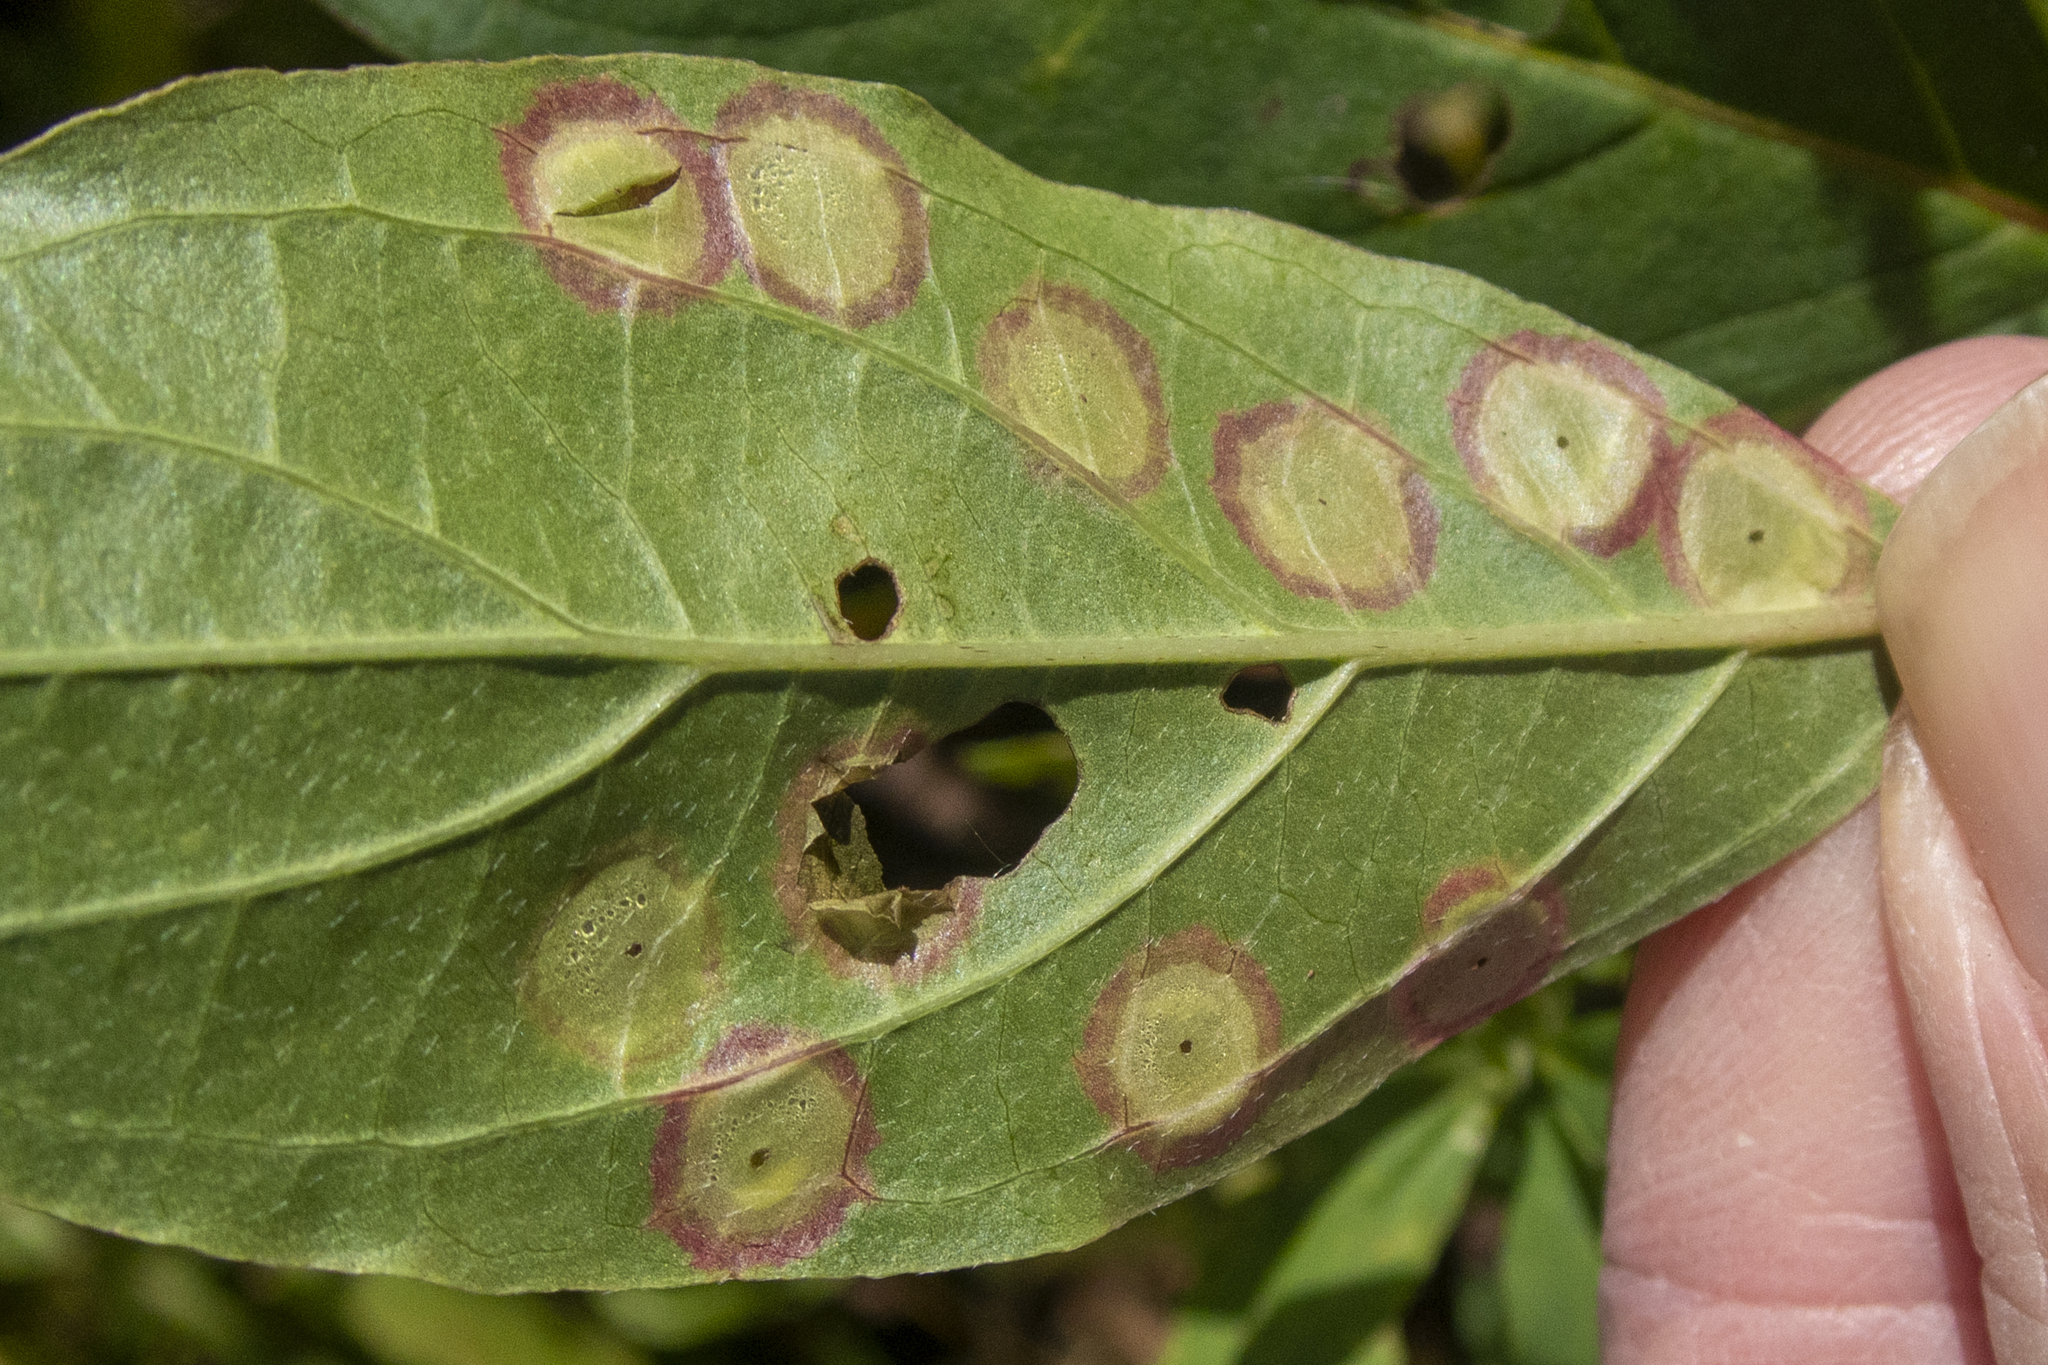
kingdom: Animalia
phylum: Arthropoda
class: Insecta
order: Diptera
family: Cecidomyiidae
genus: Parallelodiplosis
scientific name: Parallelodiplosis subtruncata
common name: Dogwood eyespot gall midge
